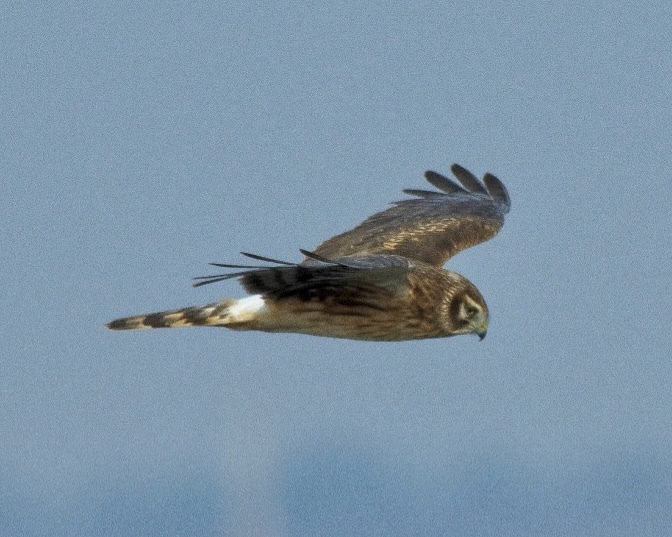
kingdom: Animalia
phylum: Chordata
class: Aves
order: Accipitriformes
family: Accipitridae
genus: Circus
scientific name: Circus cyaneus
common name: Hen harrier
